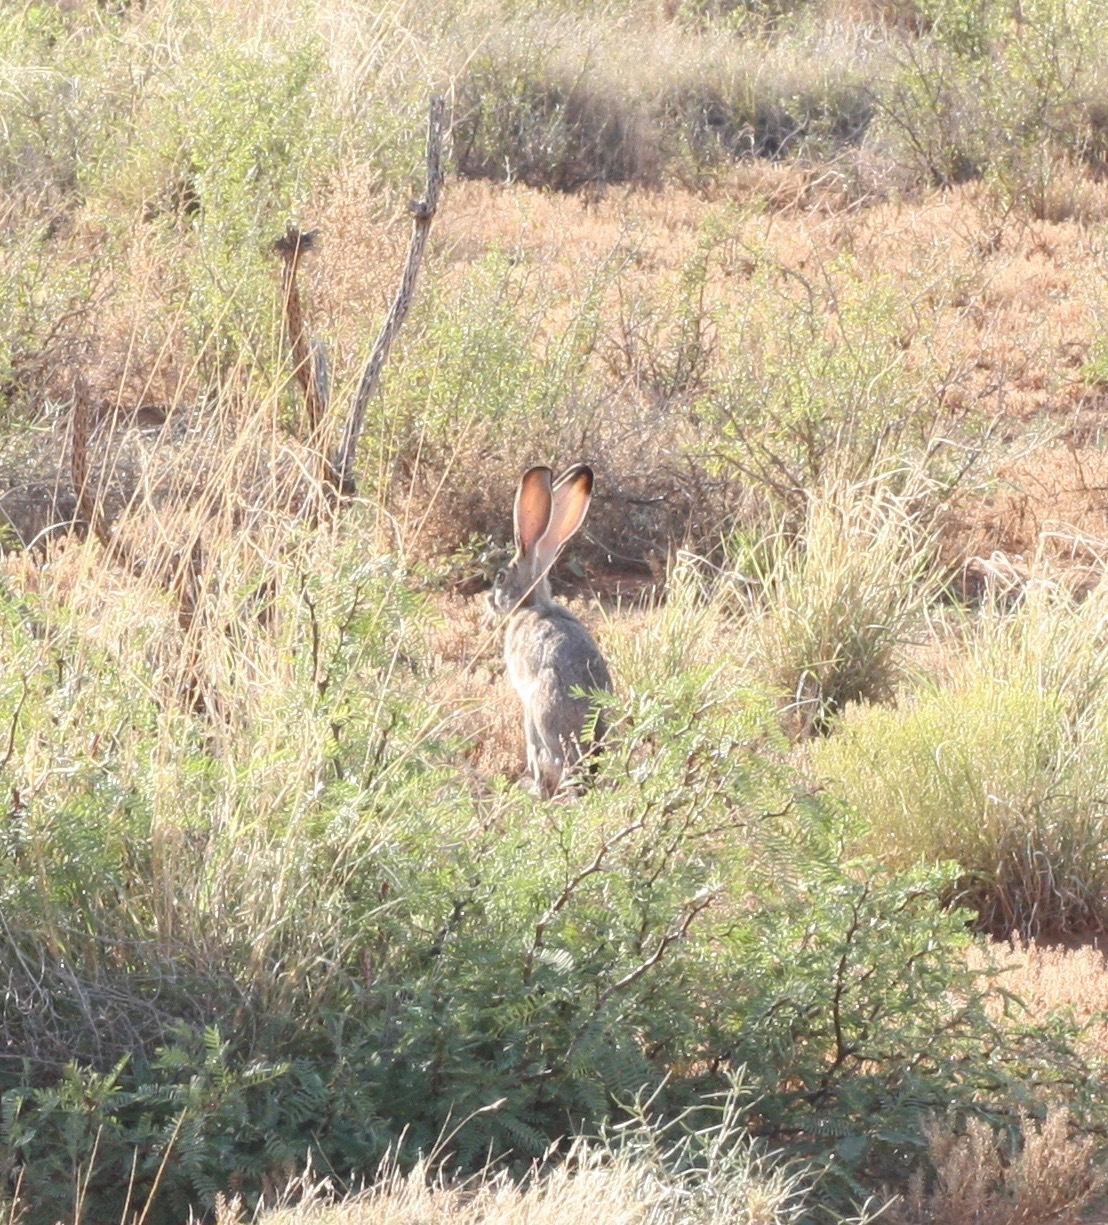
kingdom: Animalia
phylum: Chordata
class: Mammalia
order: Lagomorpha
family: Leporidae
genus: Lepus
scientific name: Lepus californicus
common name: Black-tailed jackrabbit
